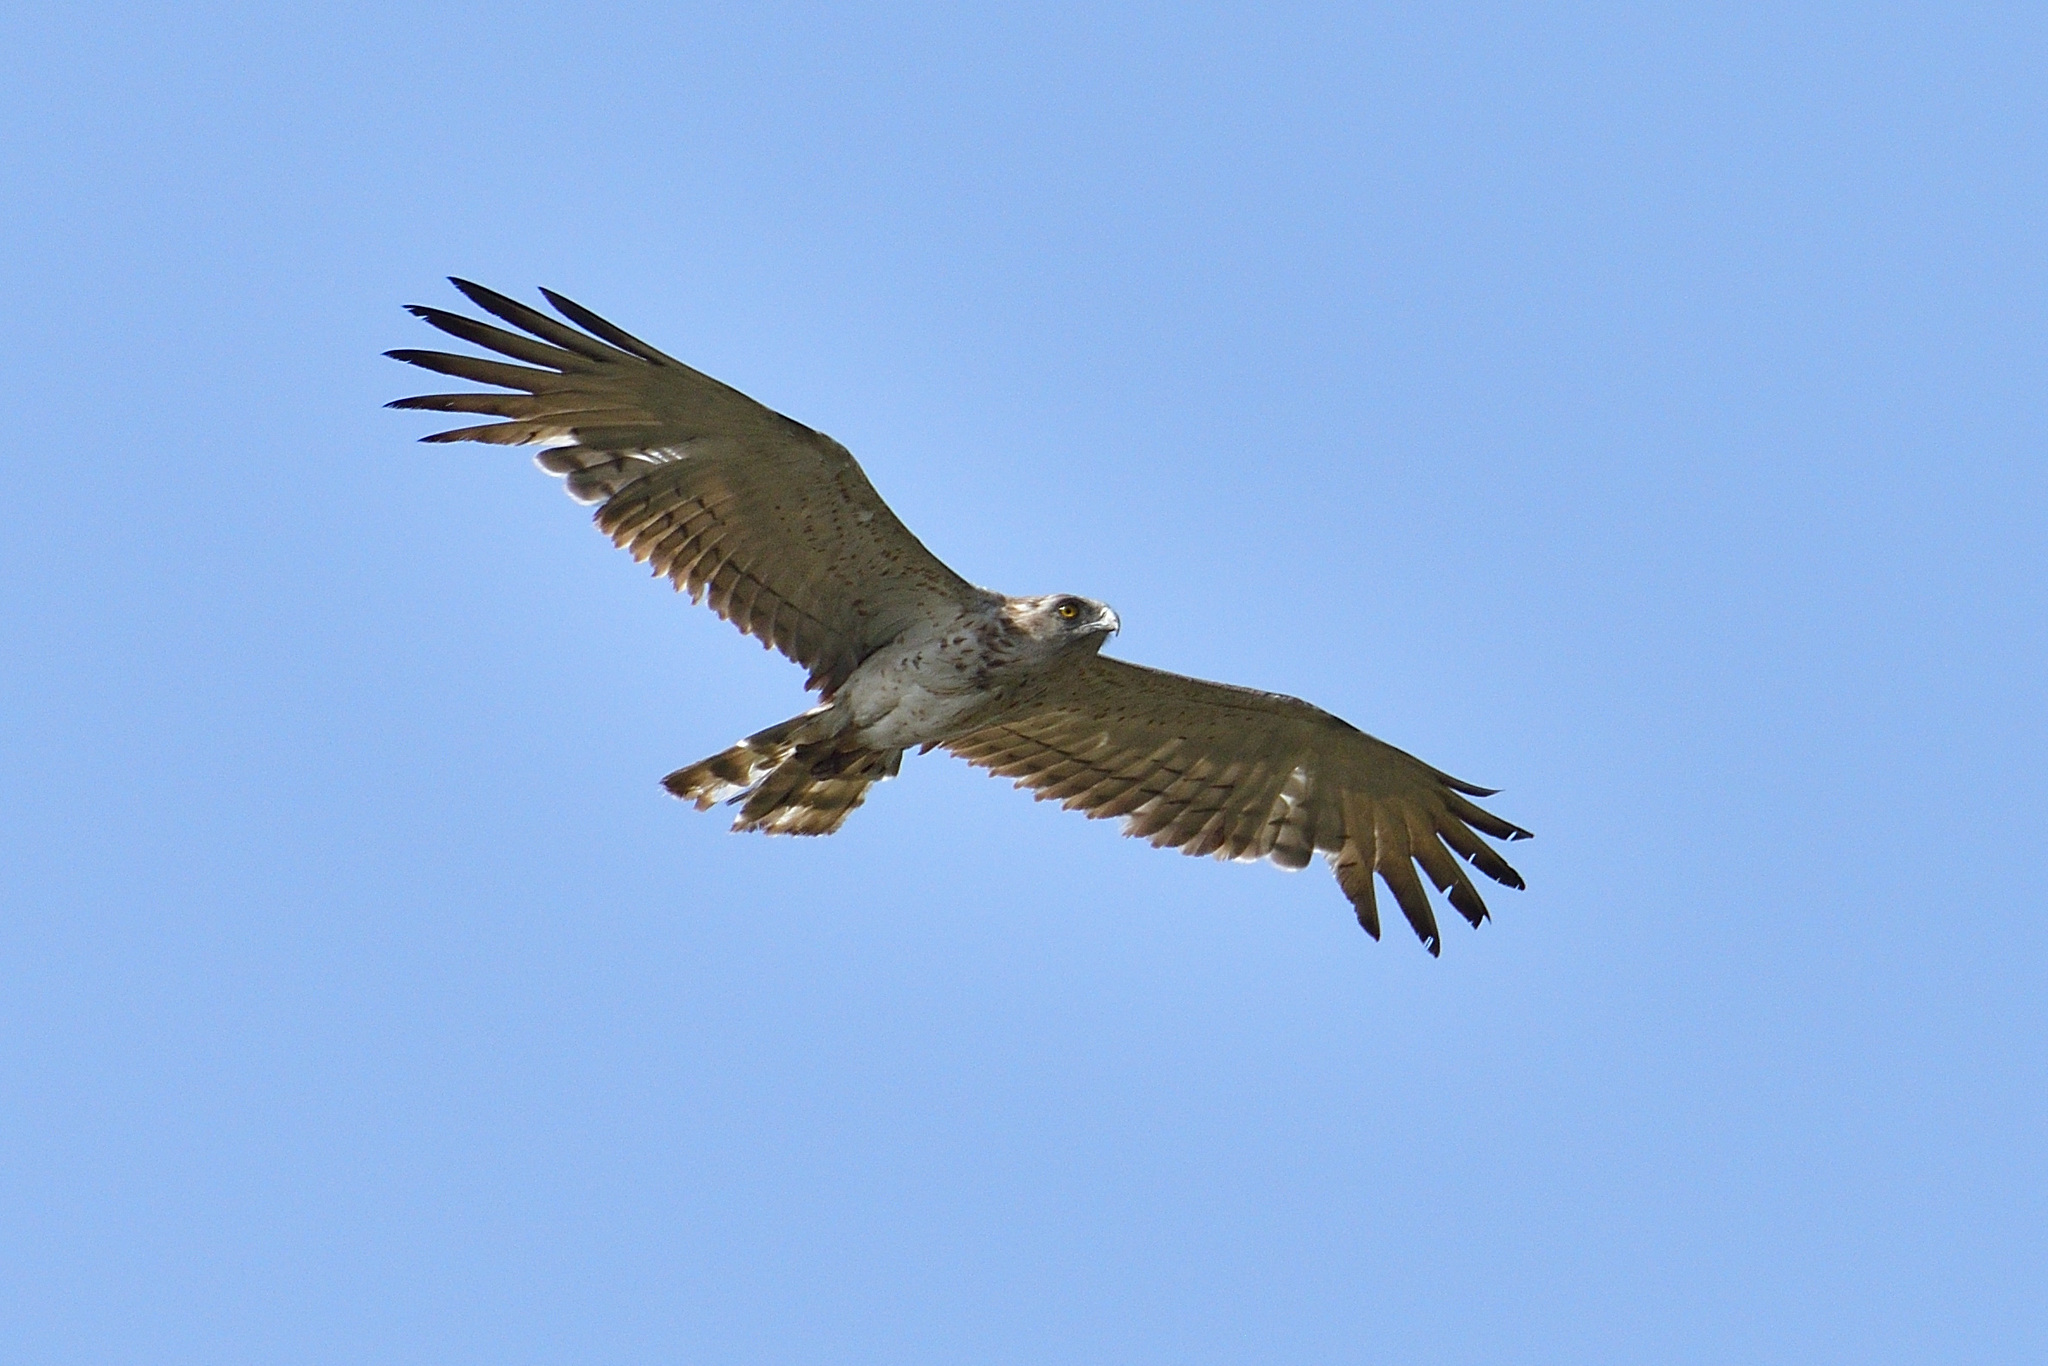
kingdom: Animalia
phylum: Chordata
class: Aves
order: Accipitriformes
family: Accipitridae
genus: Circaetus
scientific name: Circaetus gallicus
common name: Short-toed snake eagle
